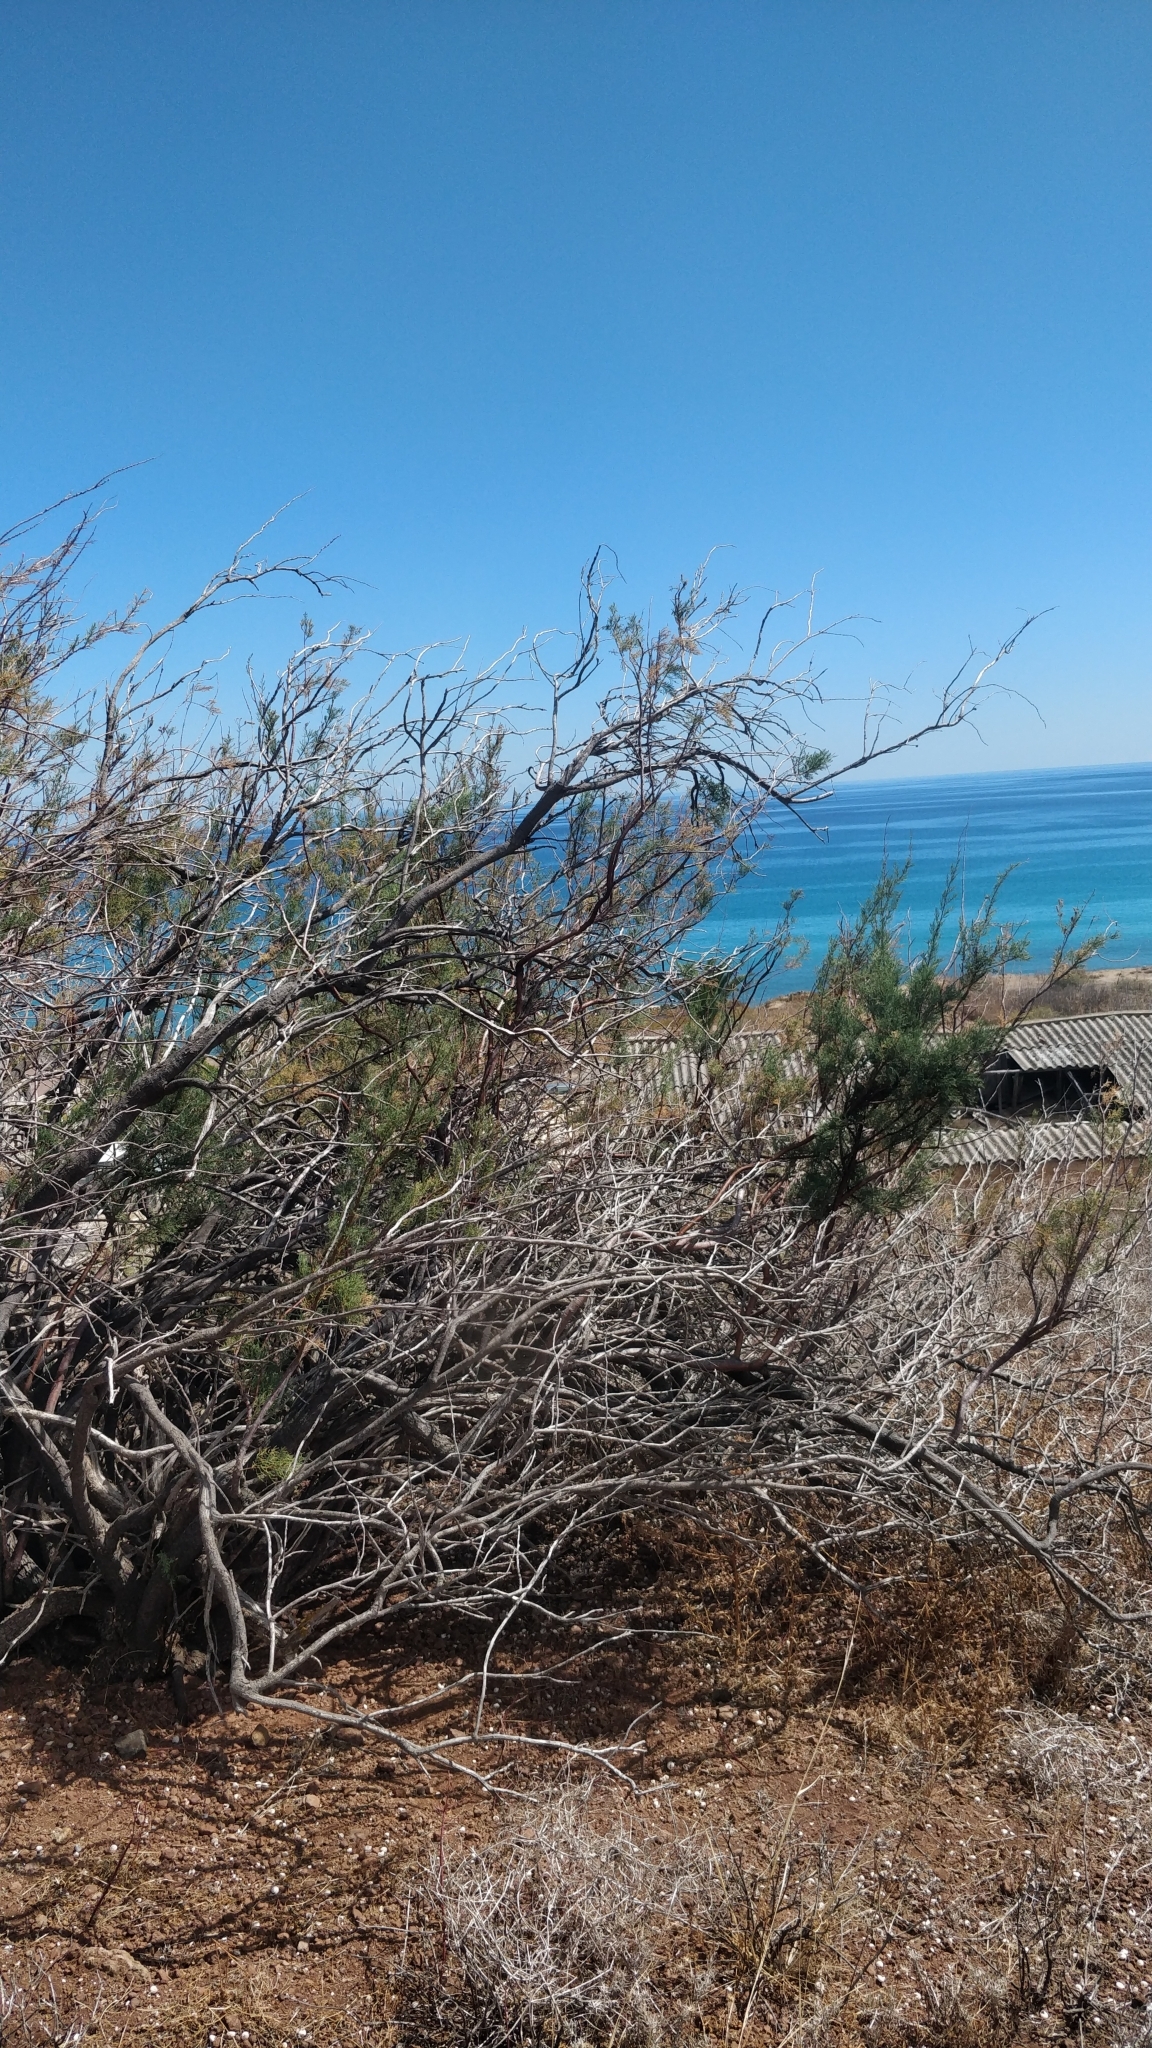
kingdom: Plantae
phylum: Tracheophyta
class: Magnoliopsida
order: Caryophyllales
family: Tamaricaceae
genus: Tamarix
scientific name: Tamarix gallica
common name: Tamarisk
